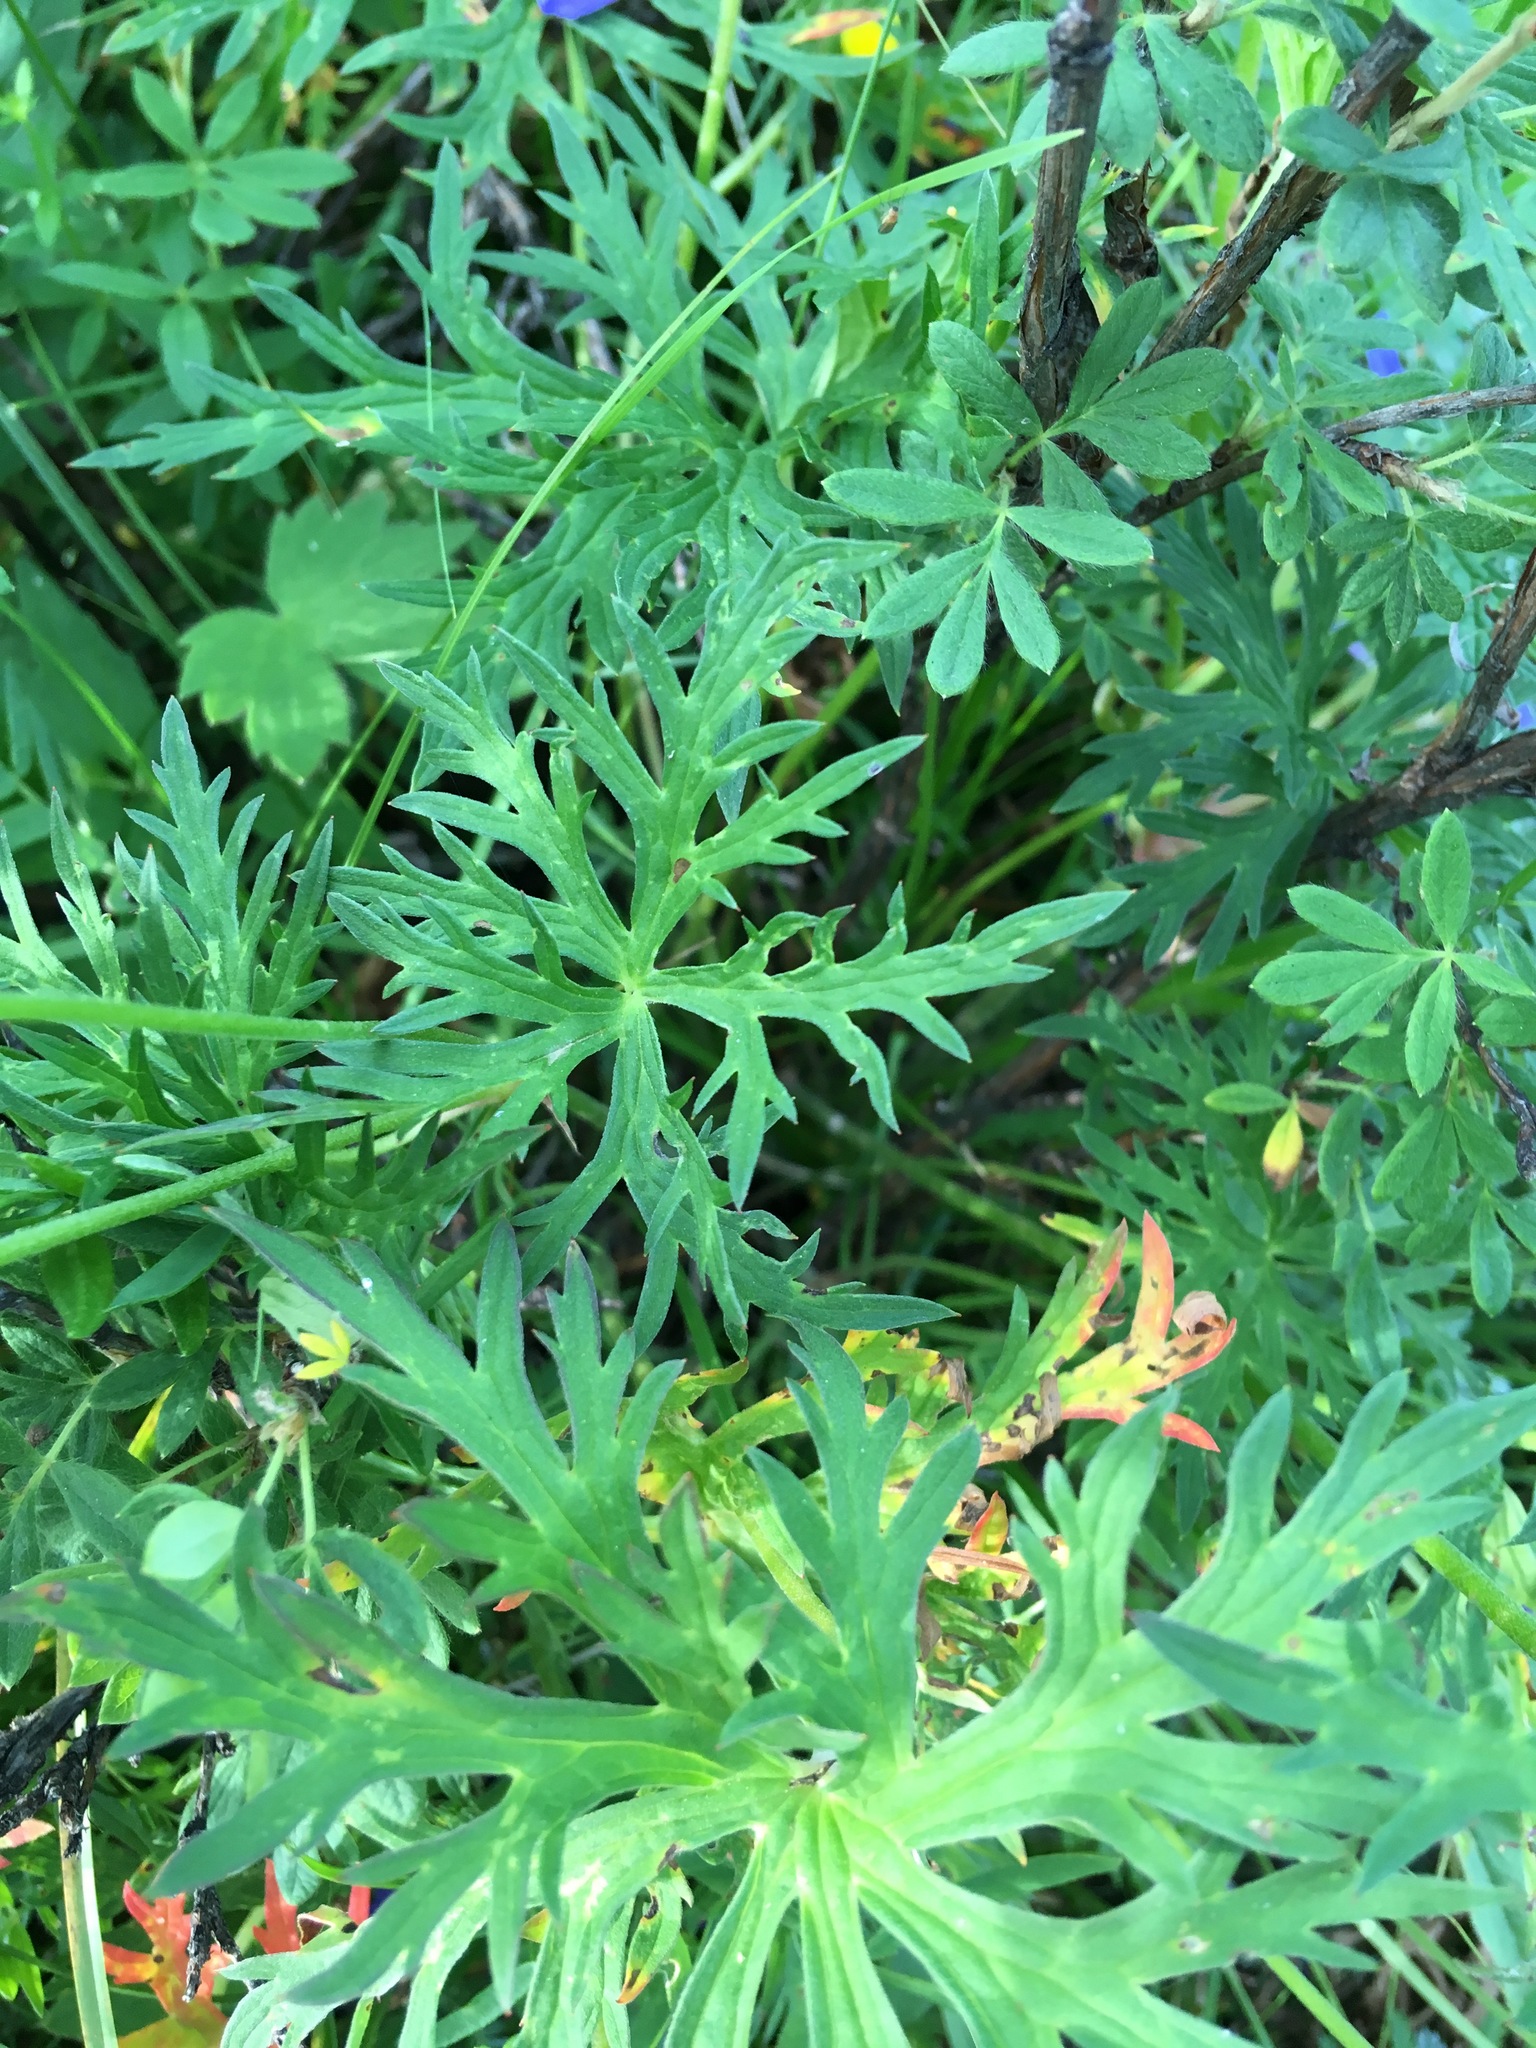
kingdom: Plantae
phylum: Tracheophyta
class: Magnoliopsida
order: Geraniales
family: Geraniaceae
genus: Geranium
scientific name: Geranium pratense
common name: Meadow crane's-bill
